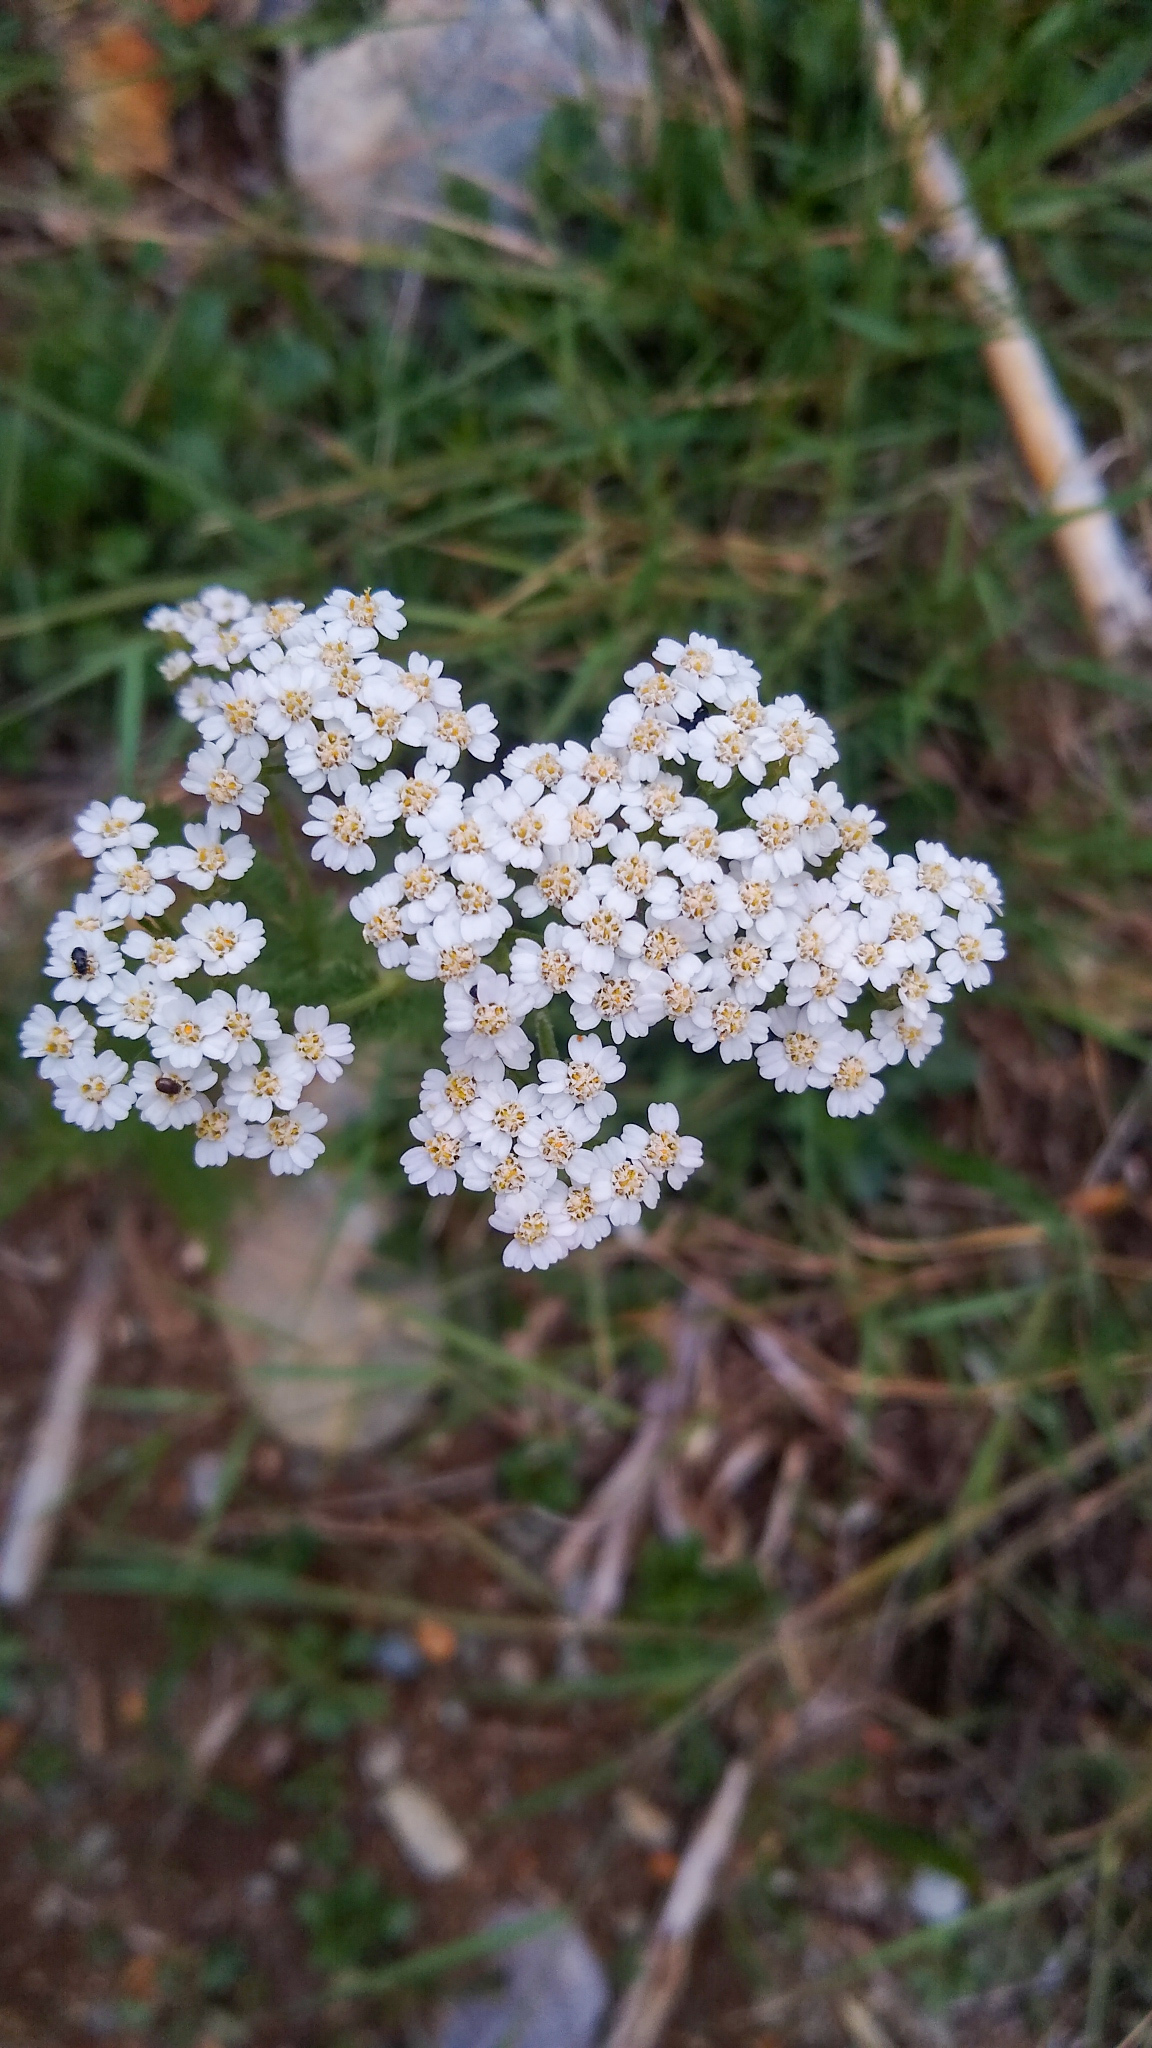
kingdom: Plantae
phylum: Tracheophyta
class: Magnoliopsida
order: Asterales
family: Asteraceae
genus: Achillea
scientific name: Achillea millefolium
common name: Yarrow
